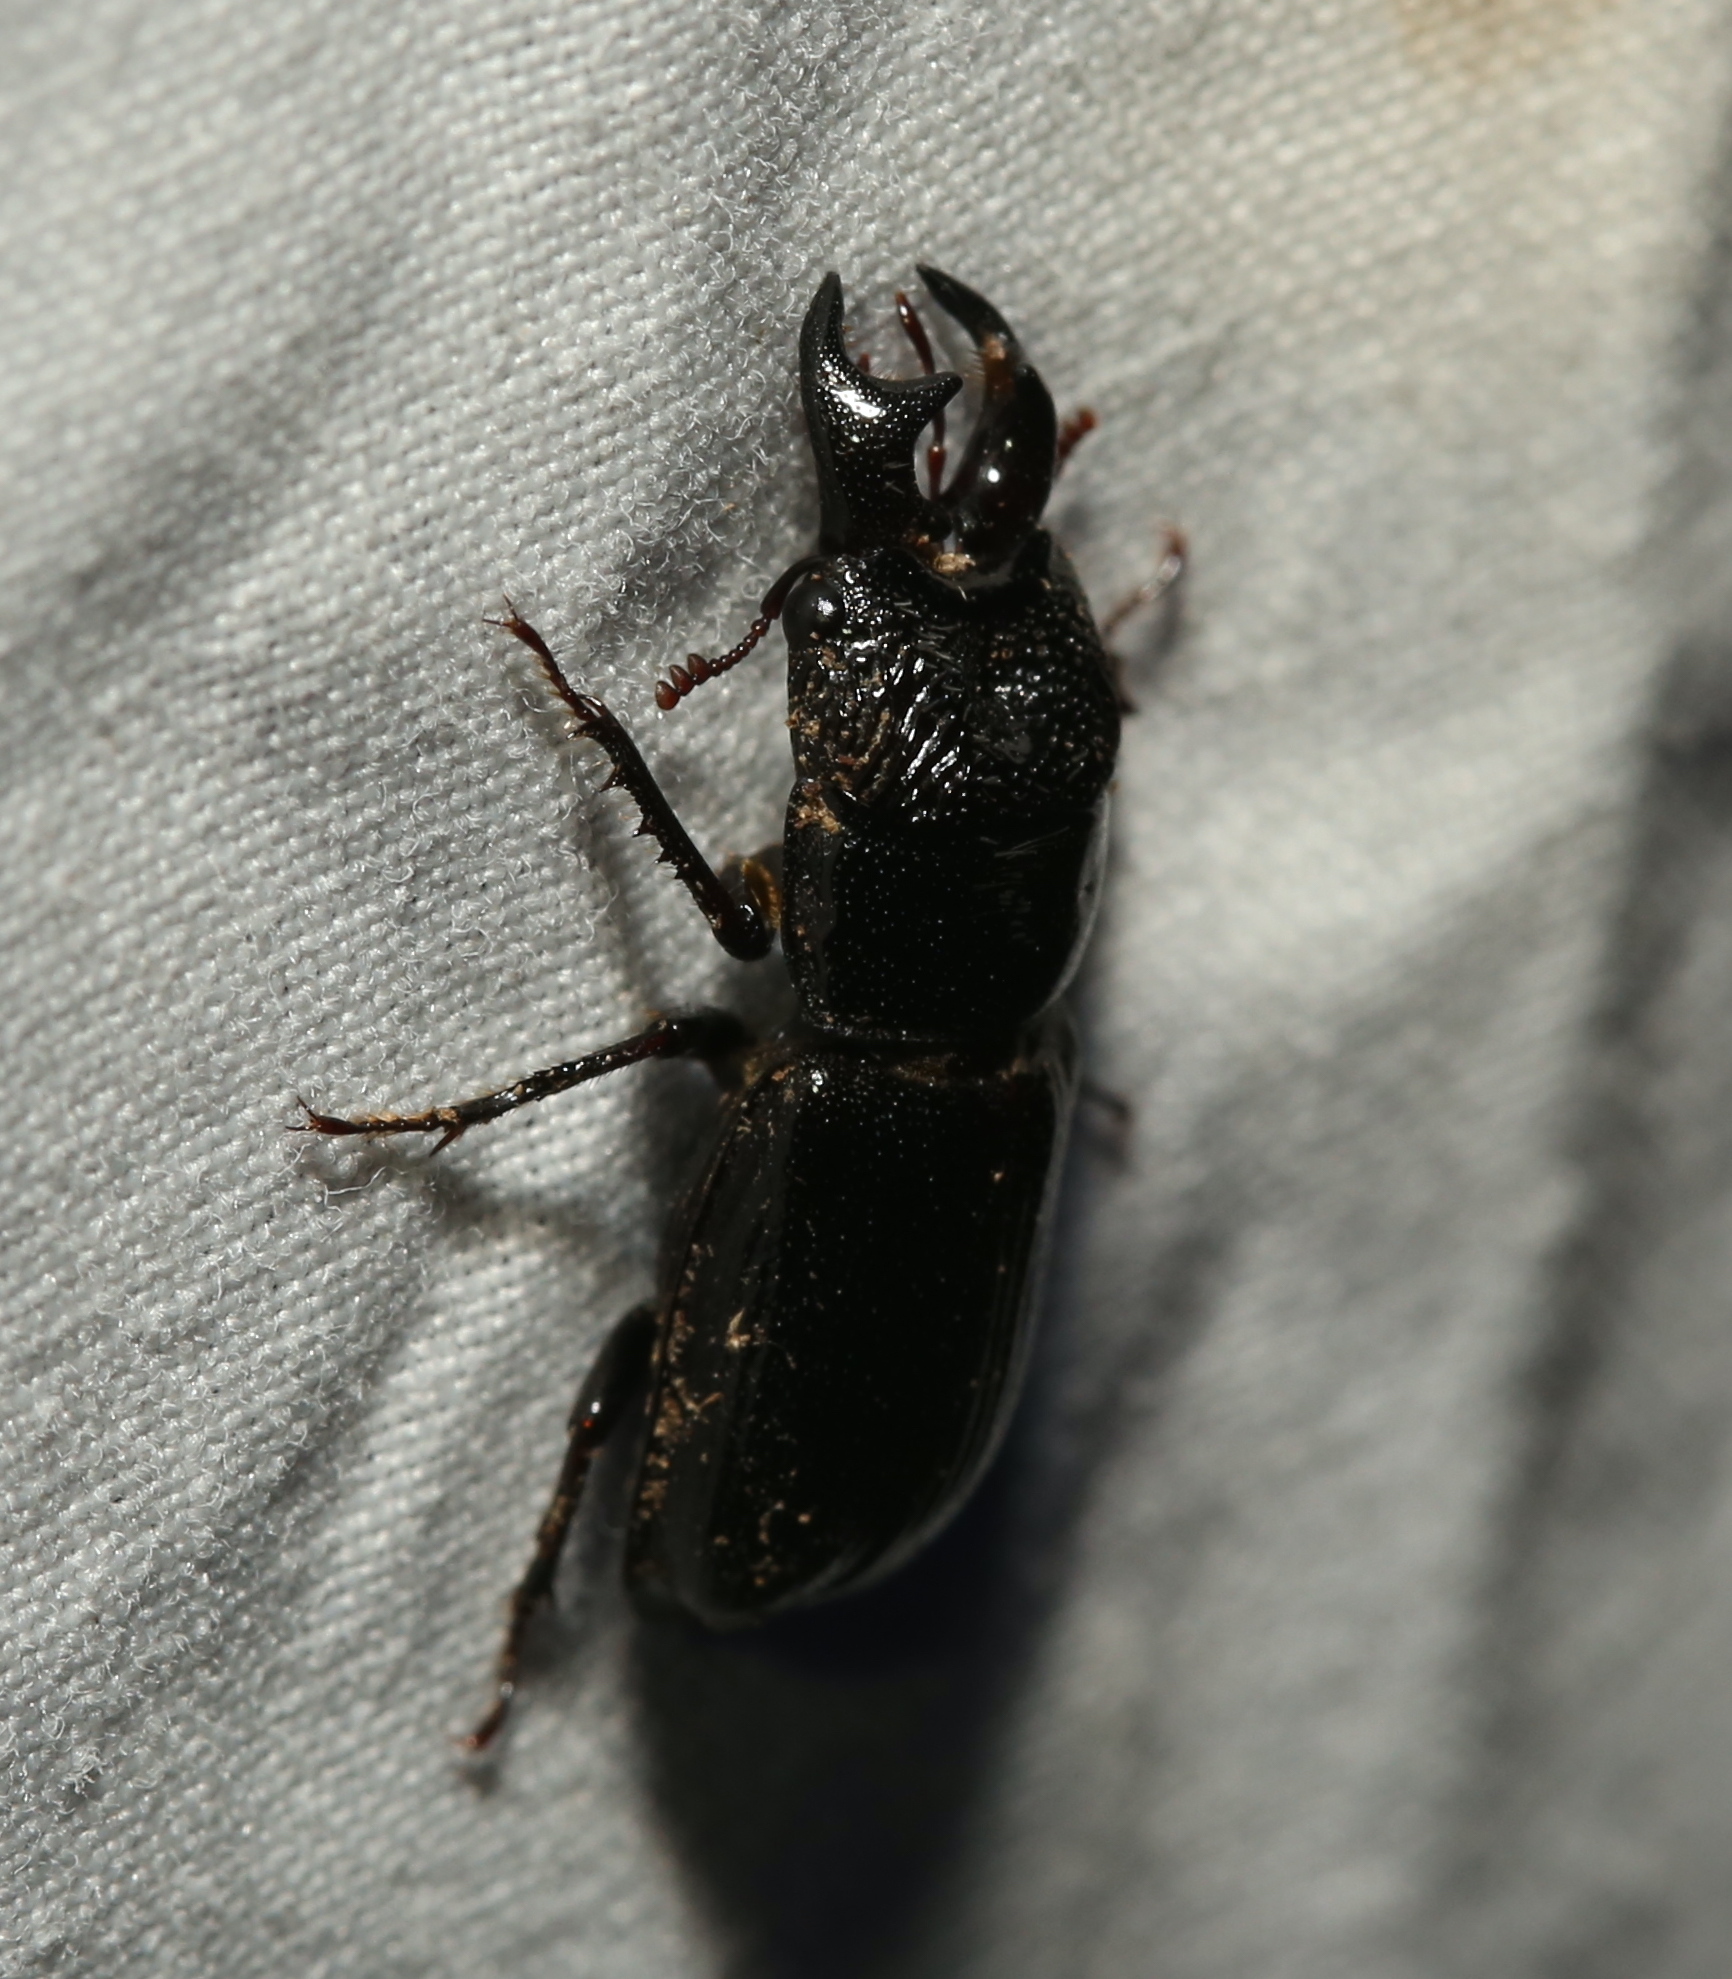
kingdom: Animalia
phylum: Arthropoda
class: Insecta
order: Coleoptera
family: Lucanidae
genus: Ceruchus
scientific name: Ceruchus piceus
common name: Red-rot decay stag beetle
